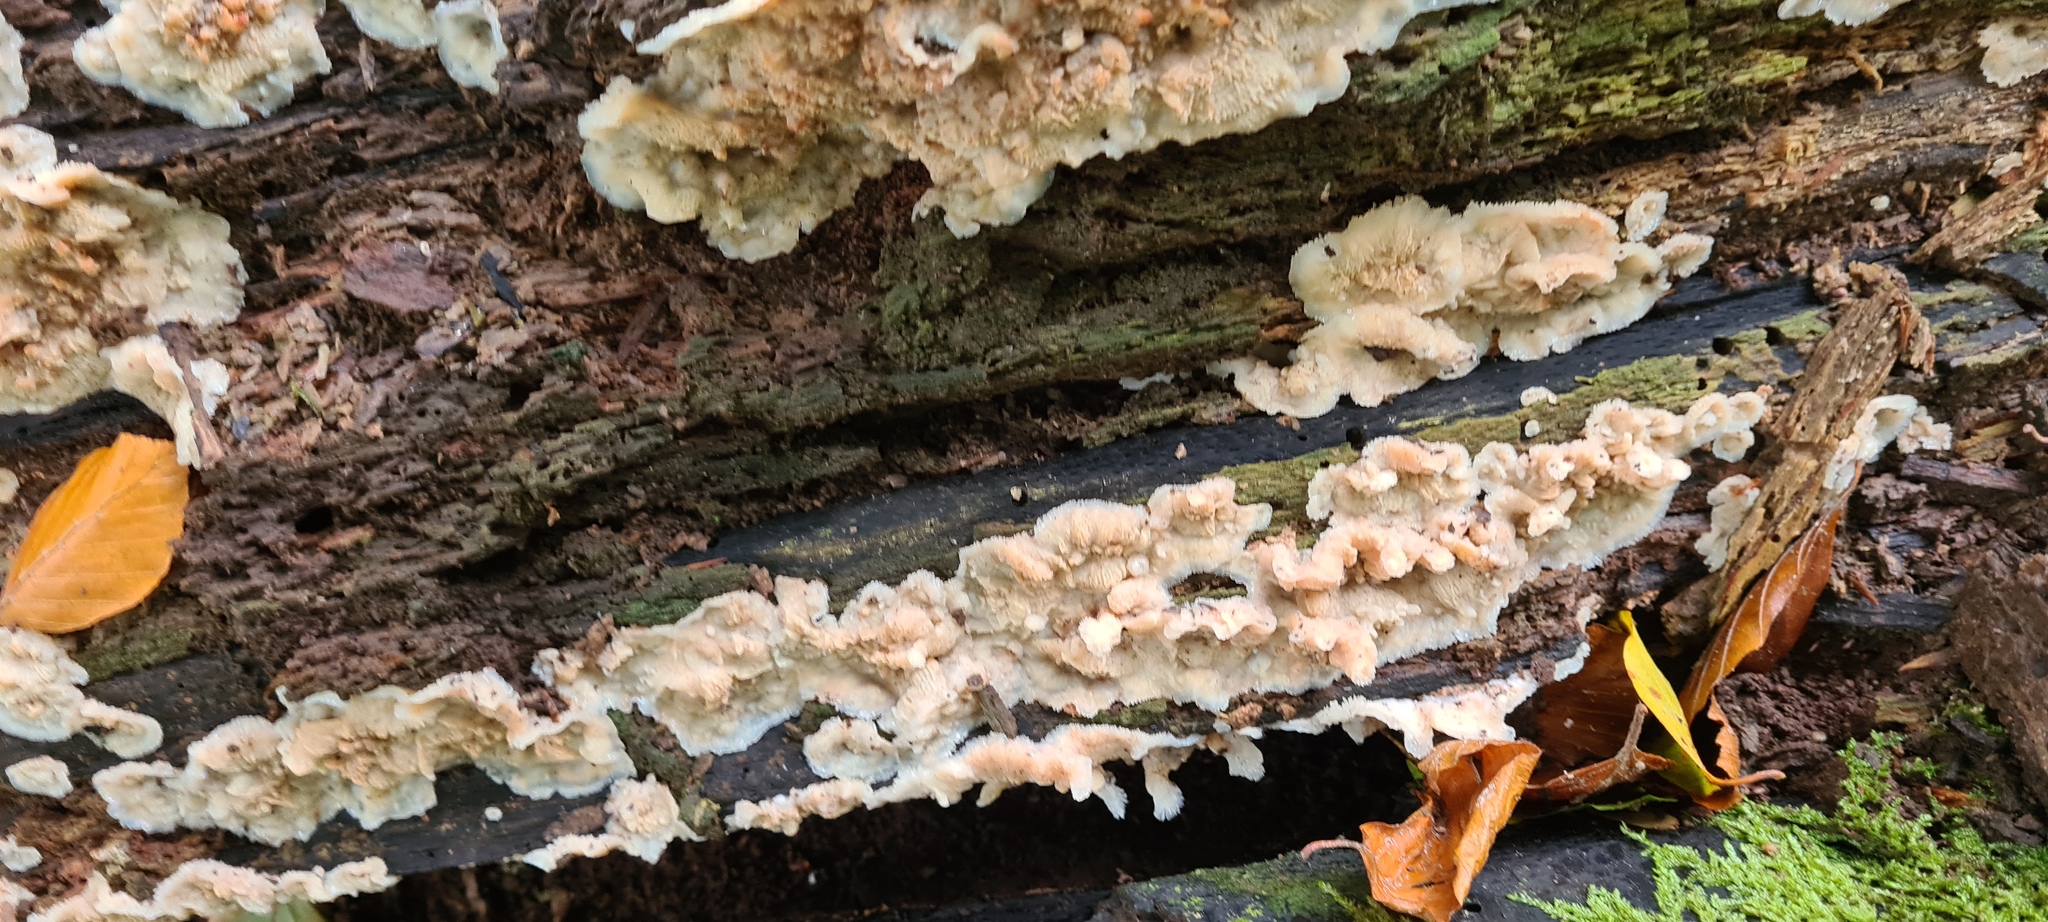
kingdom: Fungi
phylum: Basidiomycota
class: Agaricomycetes
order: Polyporales
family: Meruliaceae
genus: Phlebia
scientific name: Phlebia tremellosa
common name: Jelly rot
